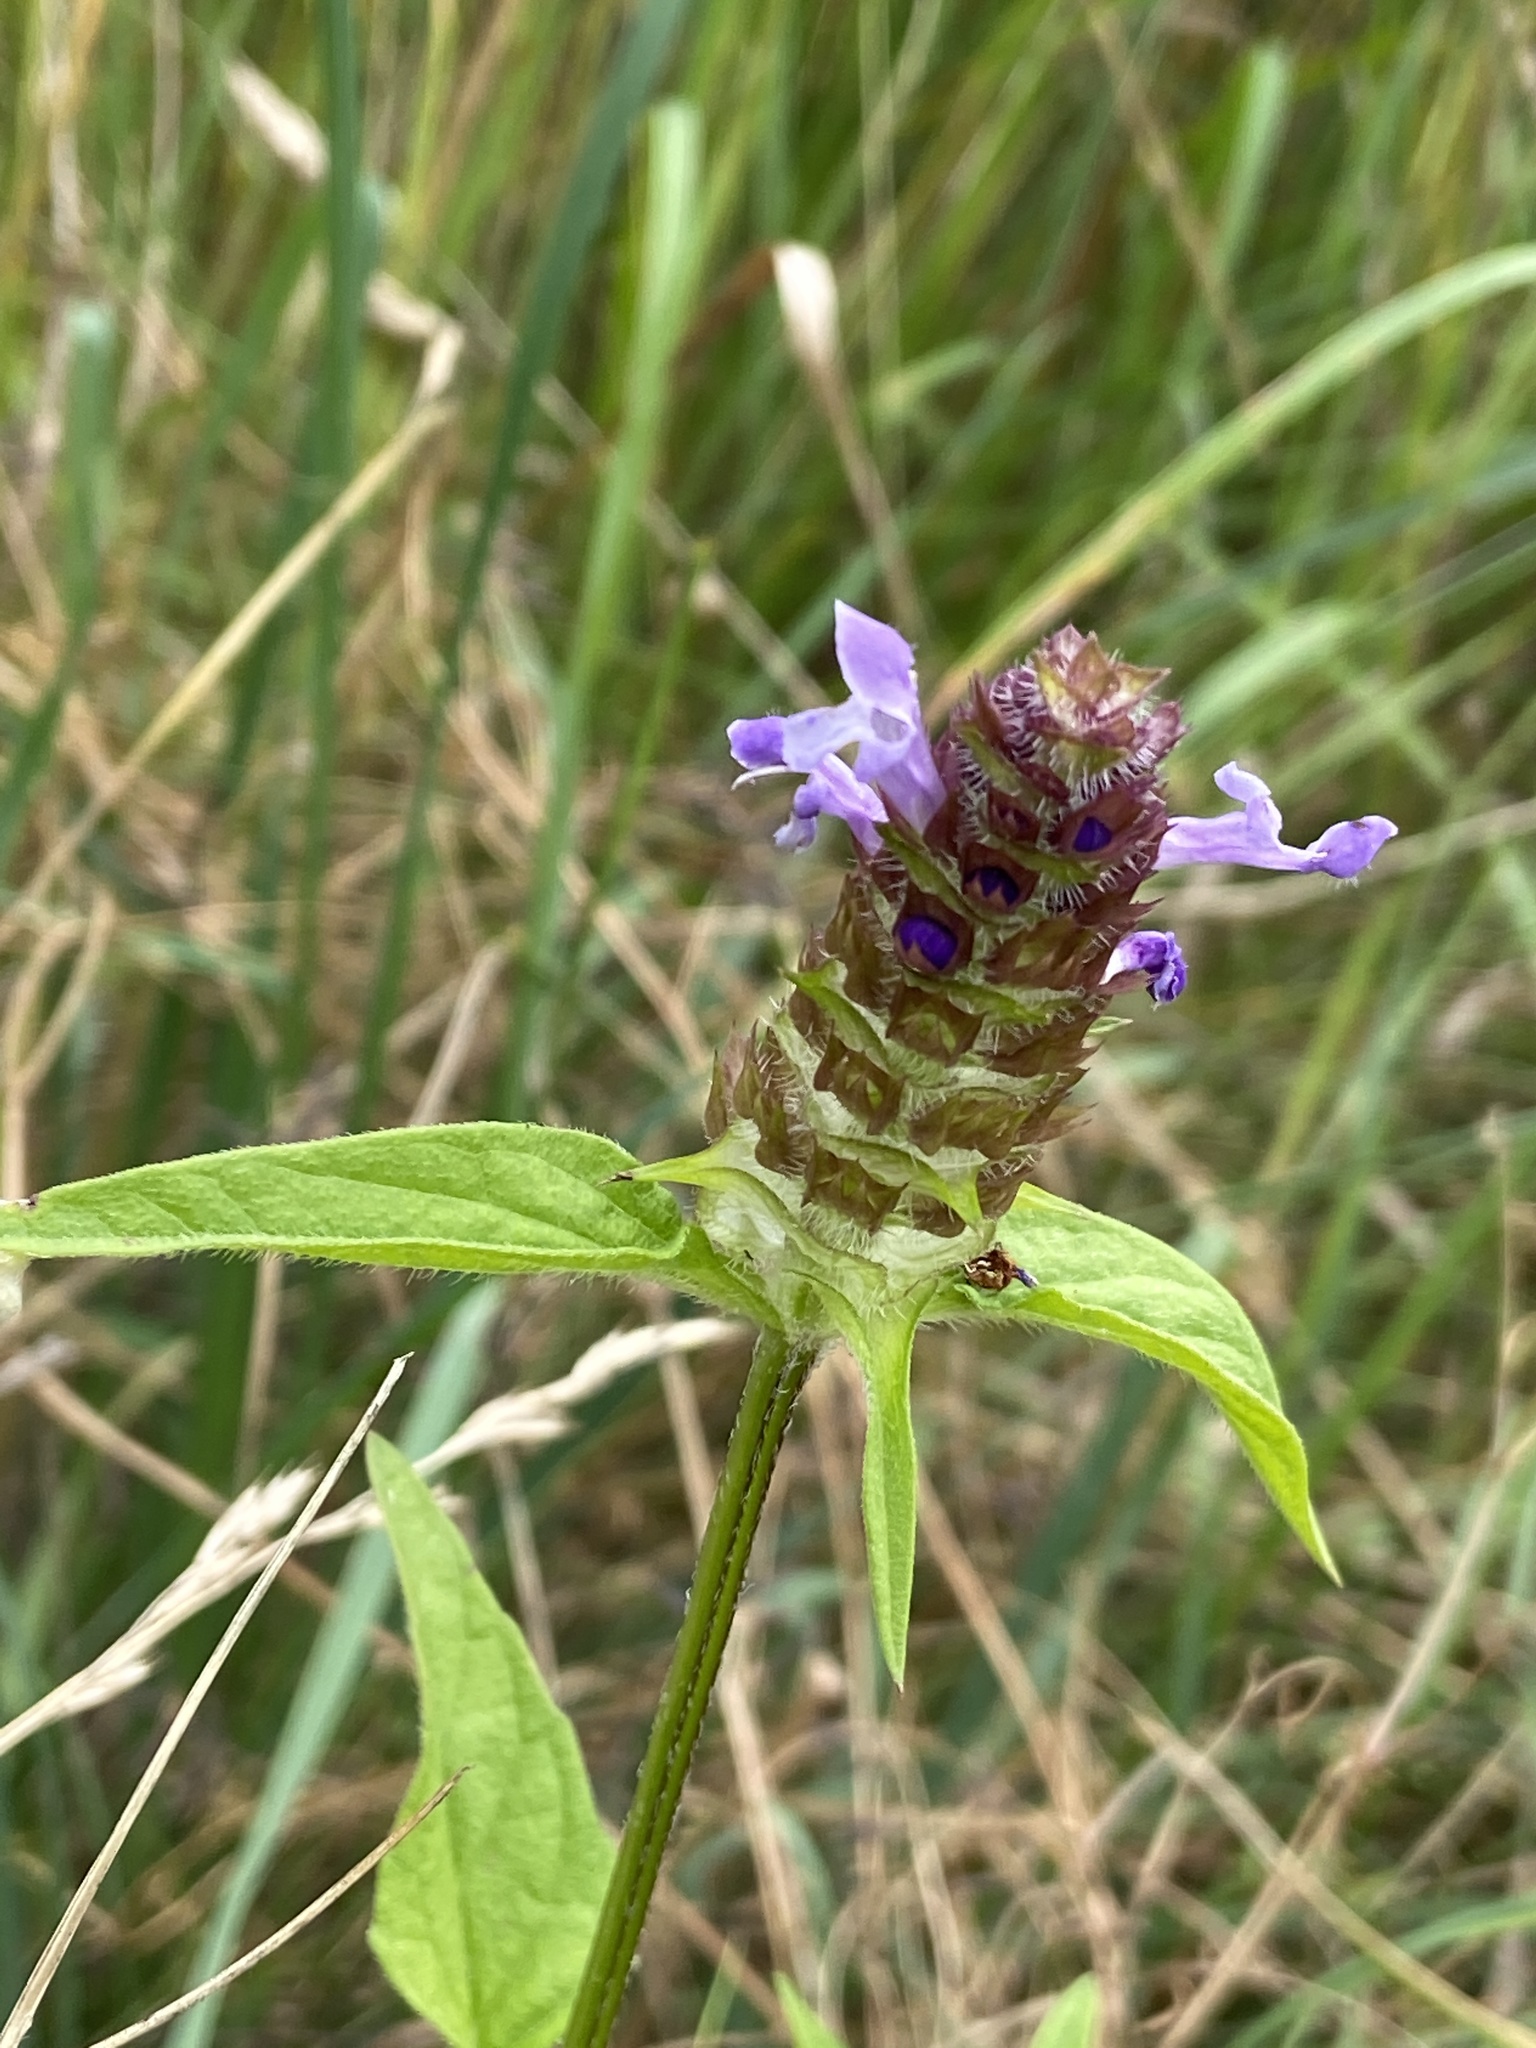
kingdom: Plantae
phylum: Tracheophyta
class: Magnoliopsida
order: Lamiales
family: Lamiaceae
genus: Prunella
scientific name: Prunella vulgaris
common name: Heal-all
